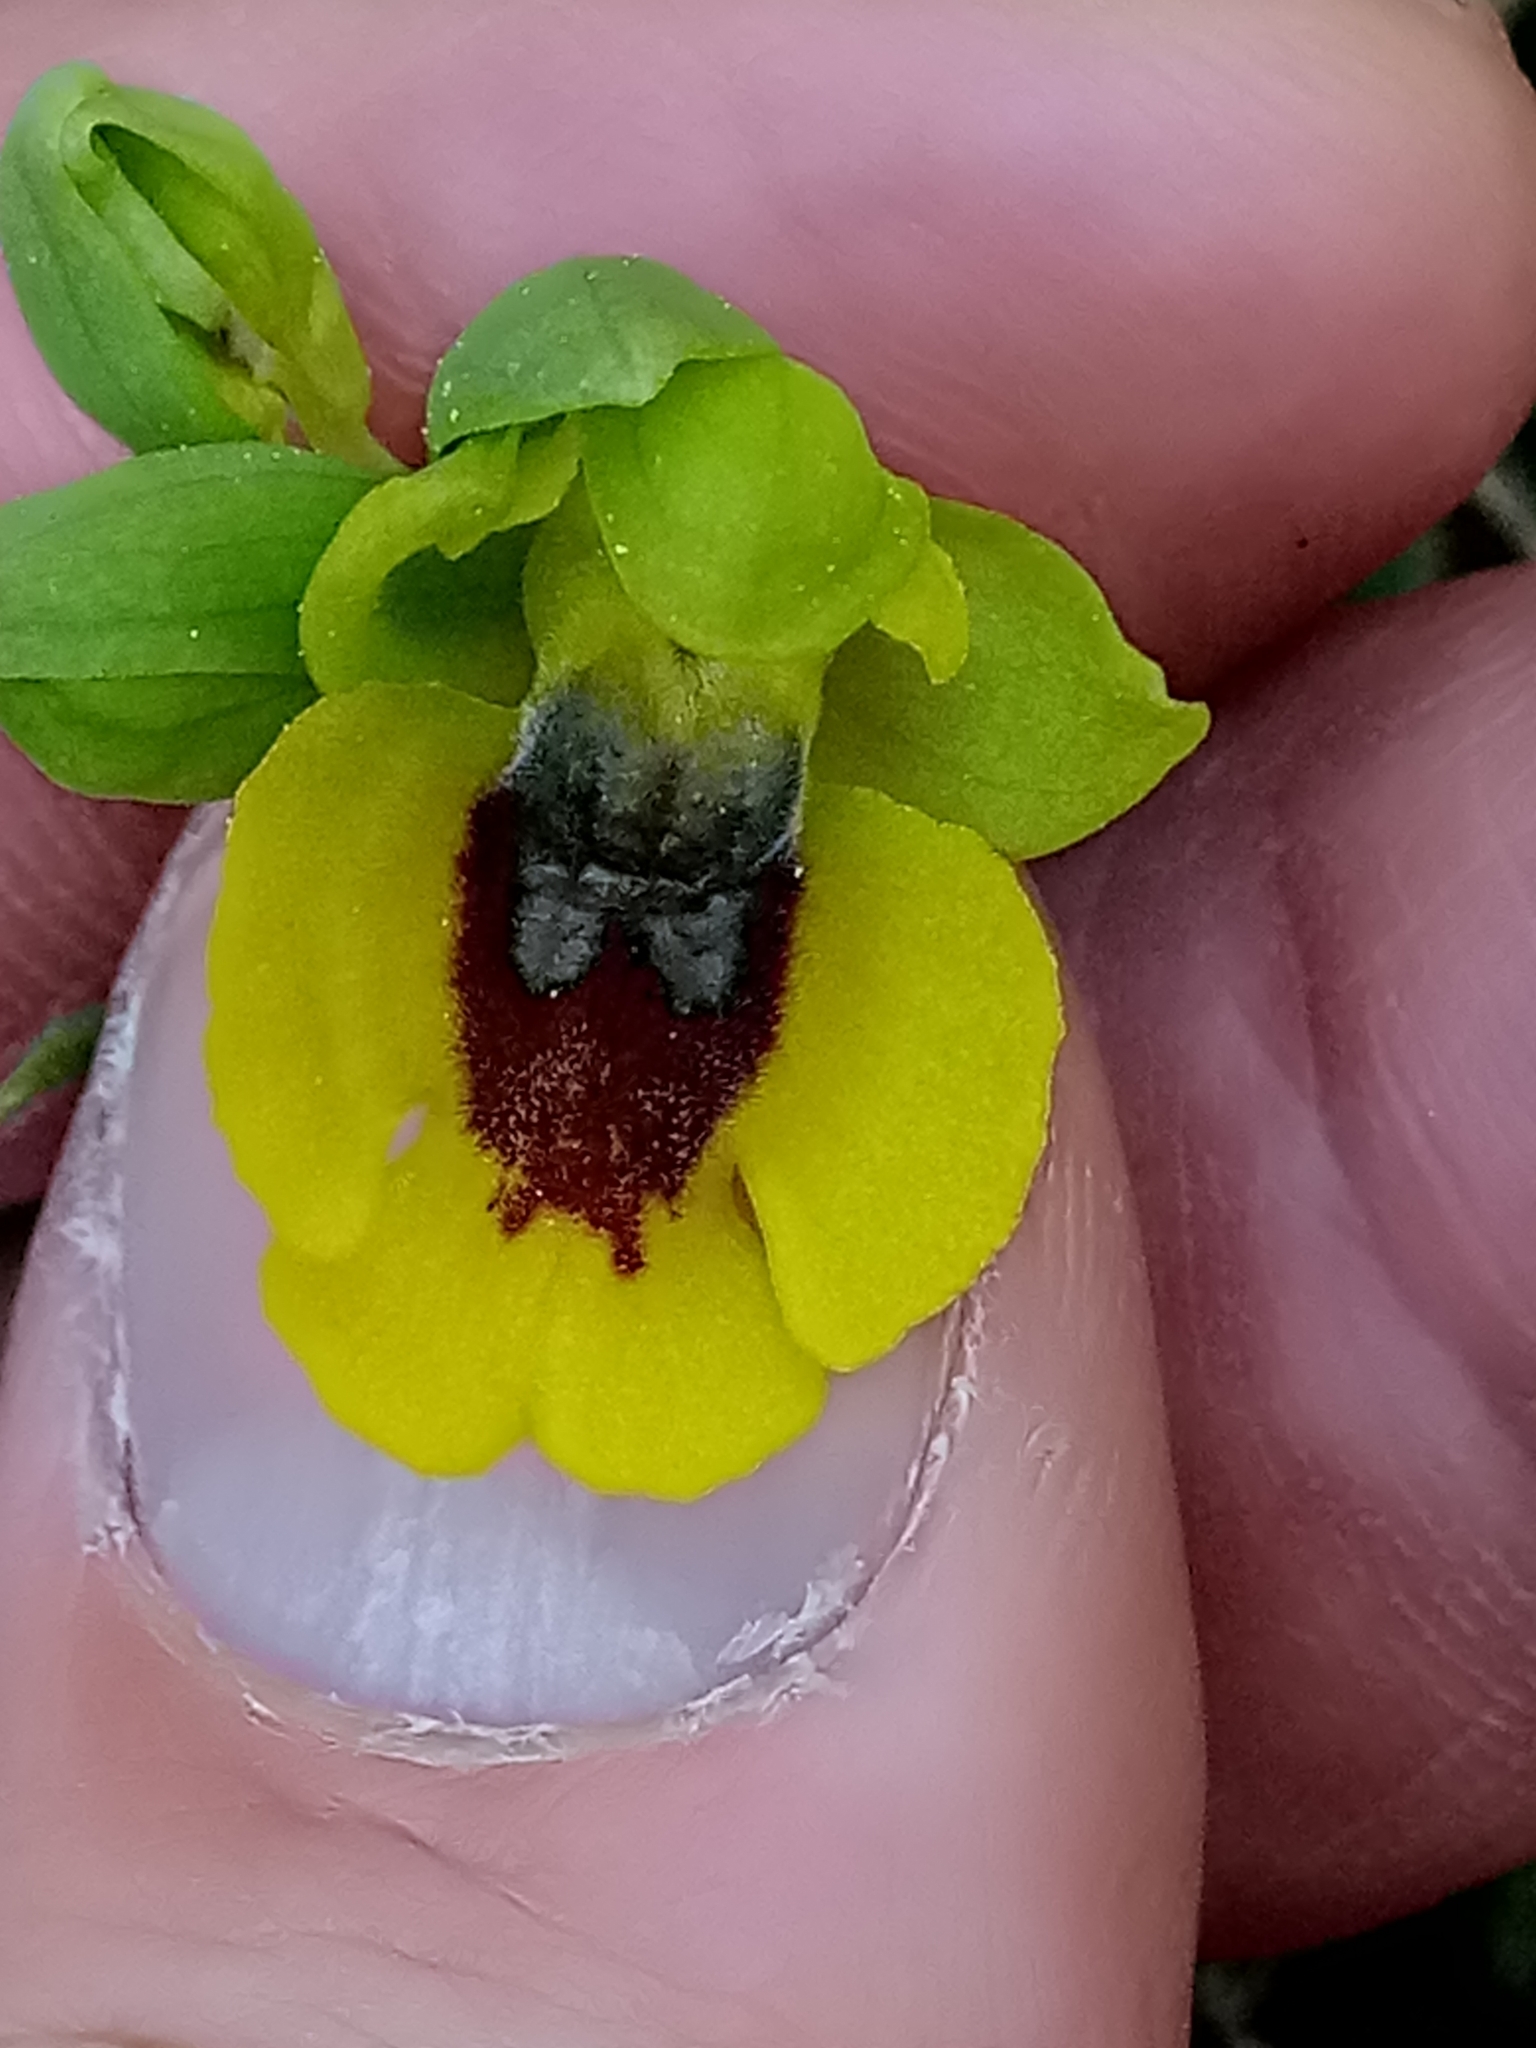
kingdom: Plantae
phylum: Tracheophyta
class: Liliopsida
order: Asparagales
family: Orchidaceae
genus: Ophrys
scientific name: Ophrys lutea
